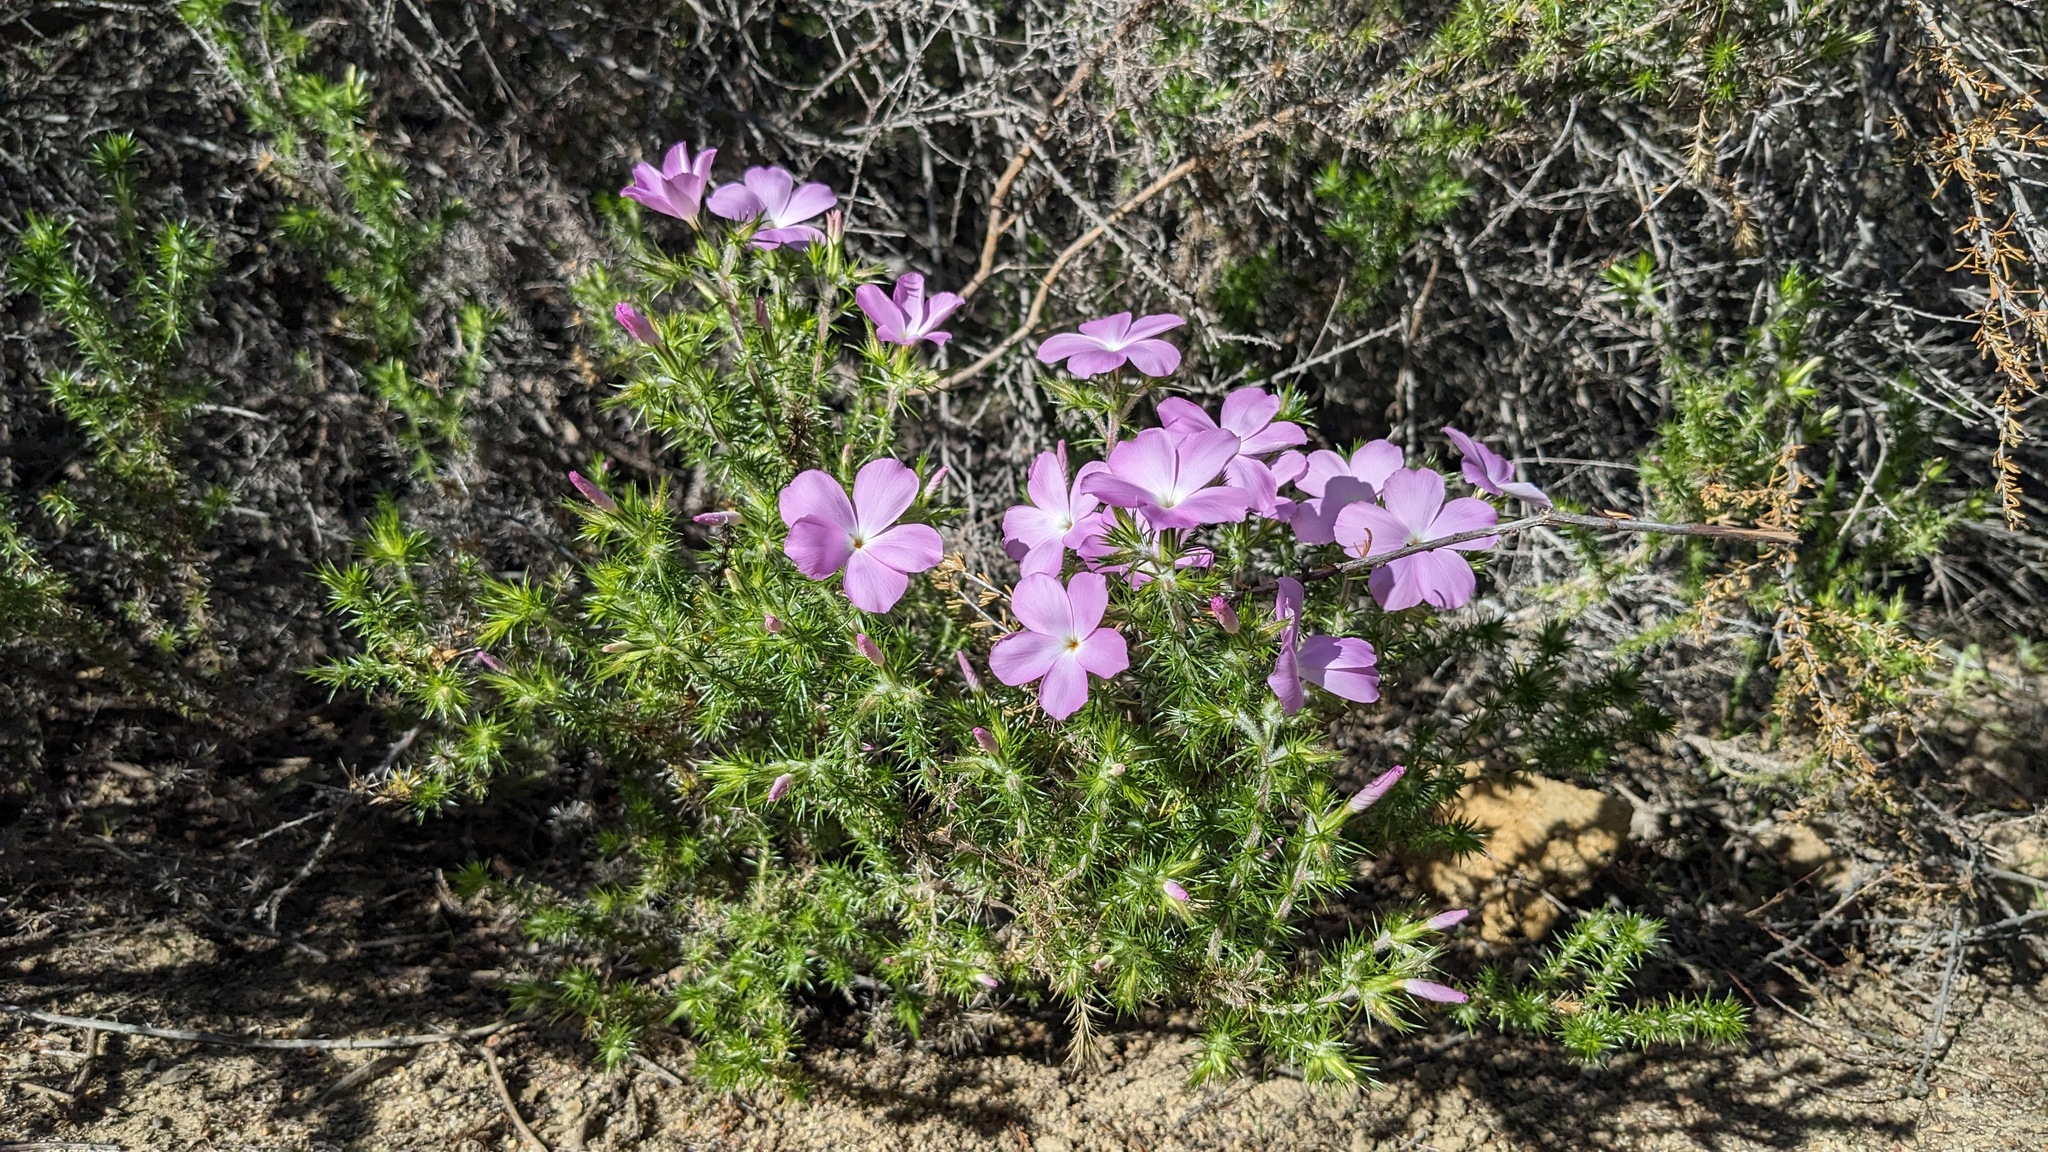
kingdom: Plantae
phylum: Tracheophyta
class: Magnoliopsida
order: Ericales
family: Polemoniaceae
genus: Linanthus
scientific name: Linanthus californicus
